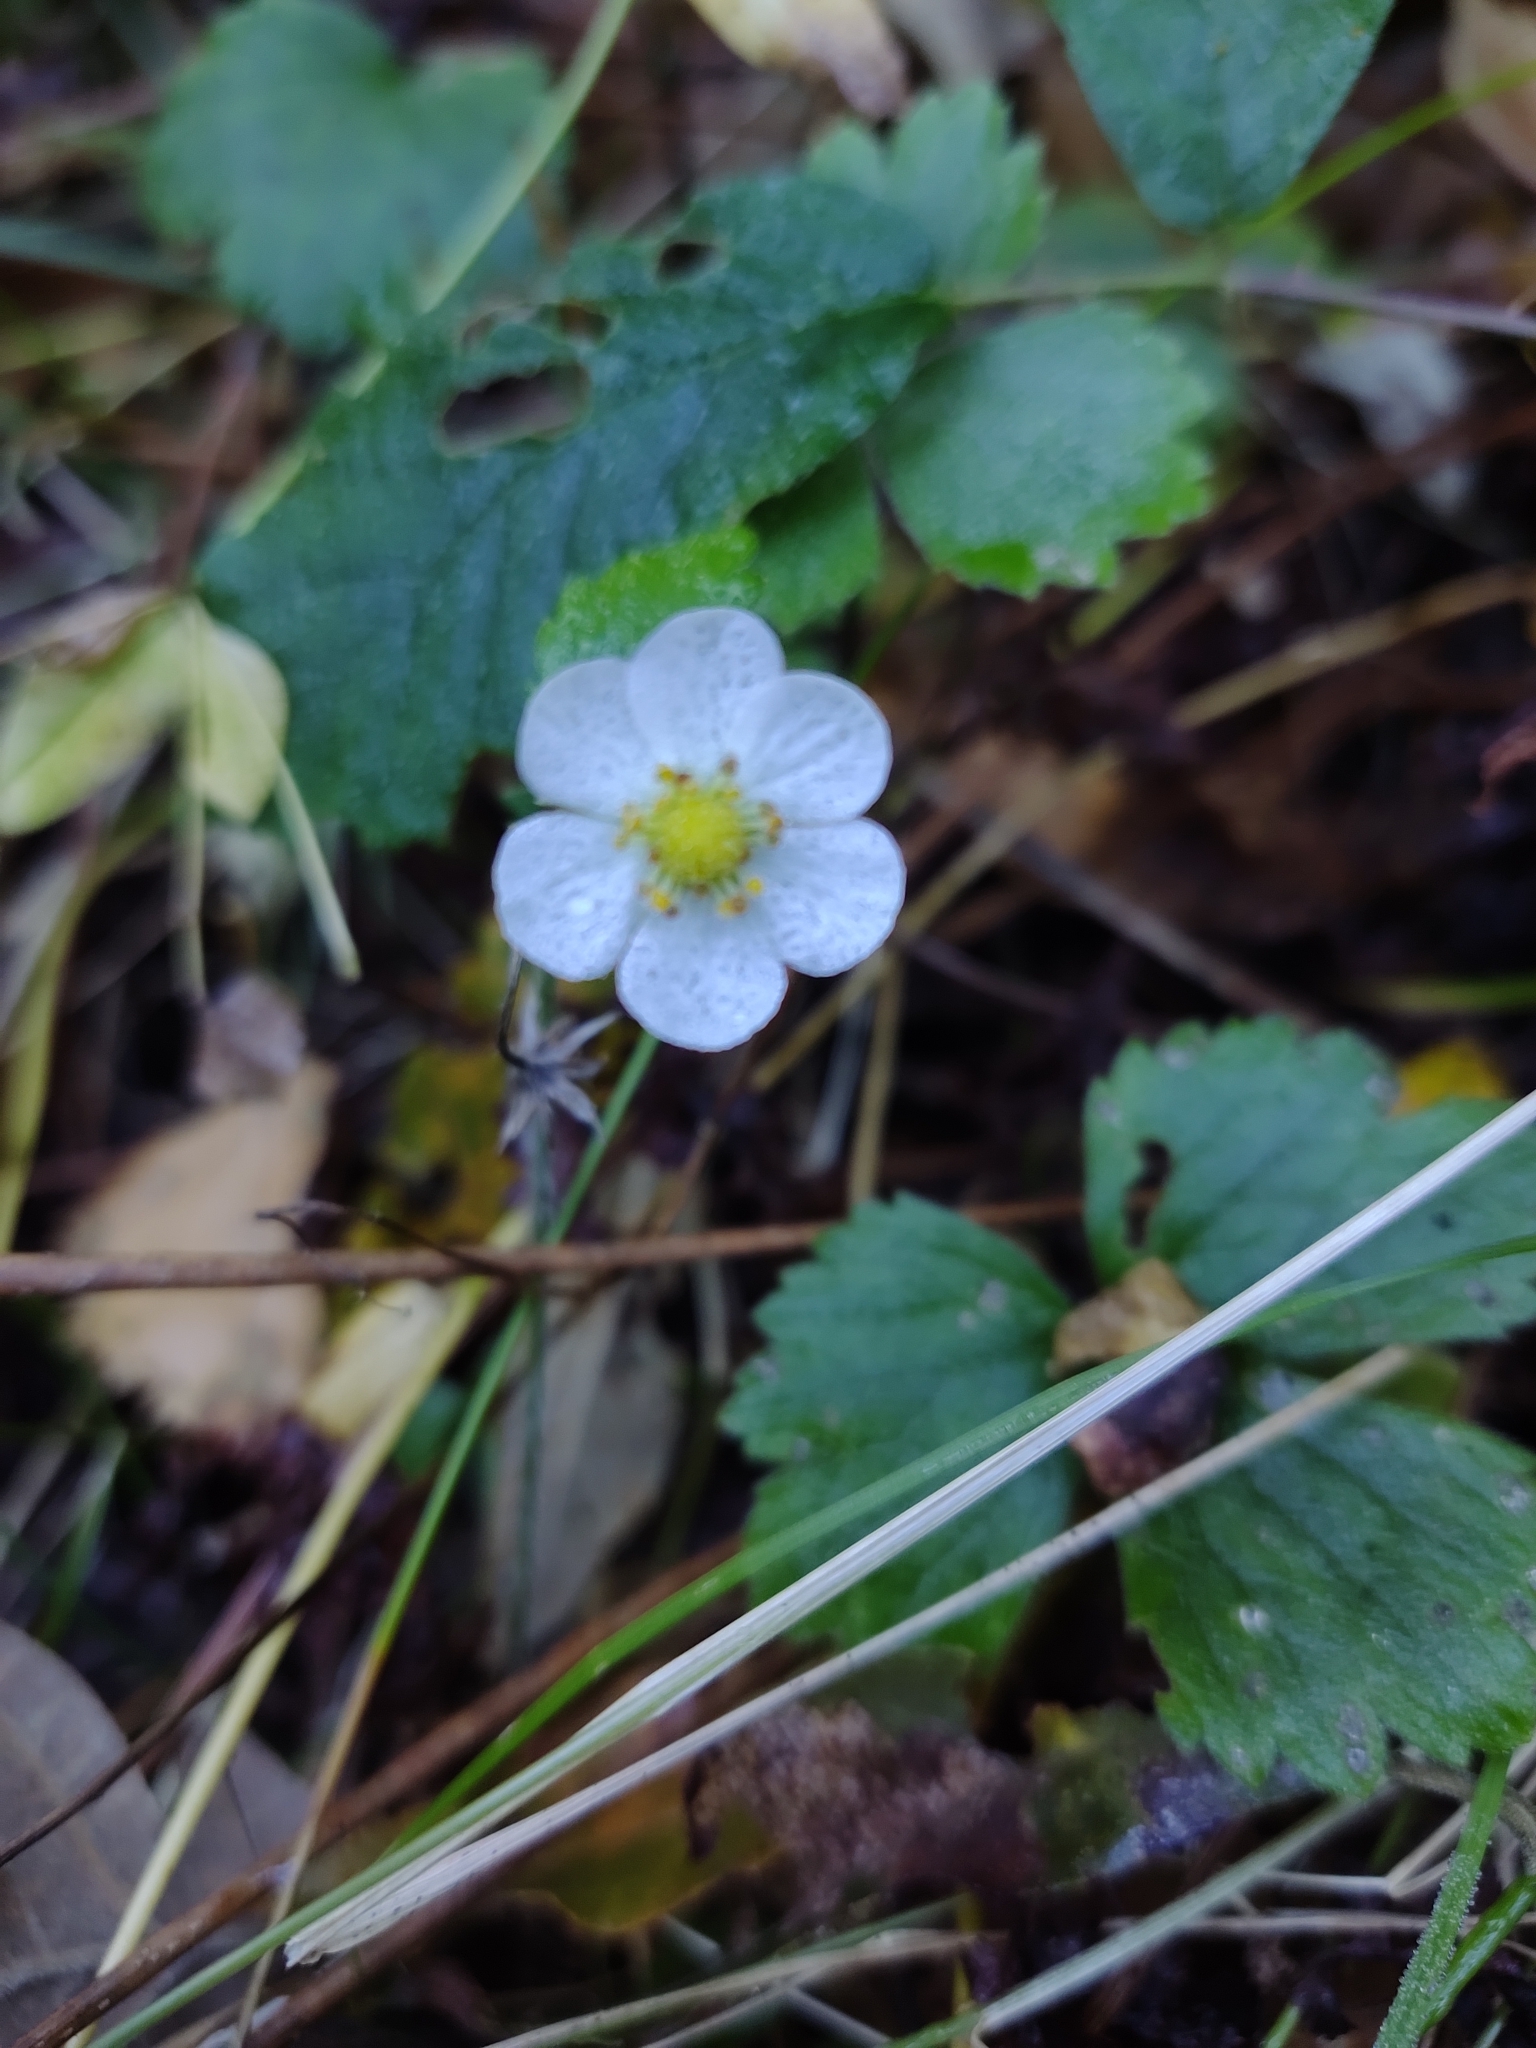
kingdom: Plantae
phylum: Tracheophyta
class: Magnoliopsida
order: Rosales
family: Rosaceae
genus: Fragaria
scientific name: Fragaria vesca
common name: Wild strawberry
